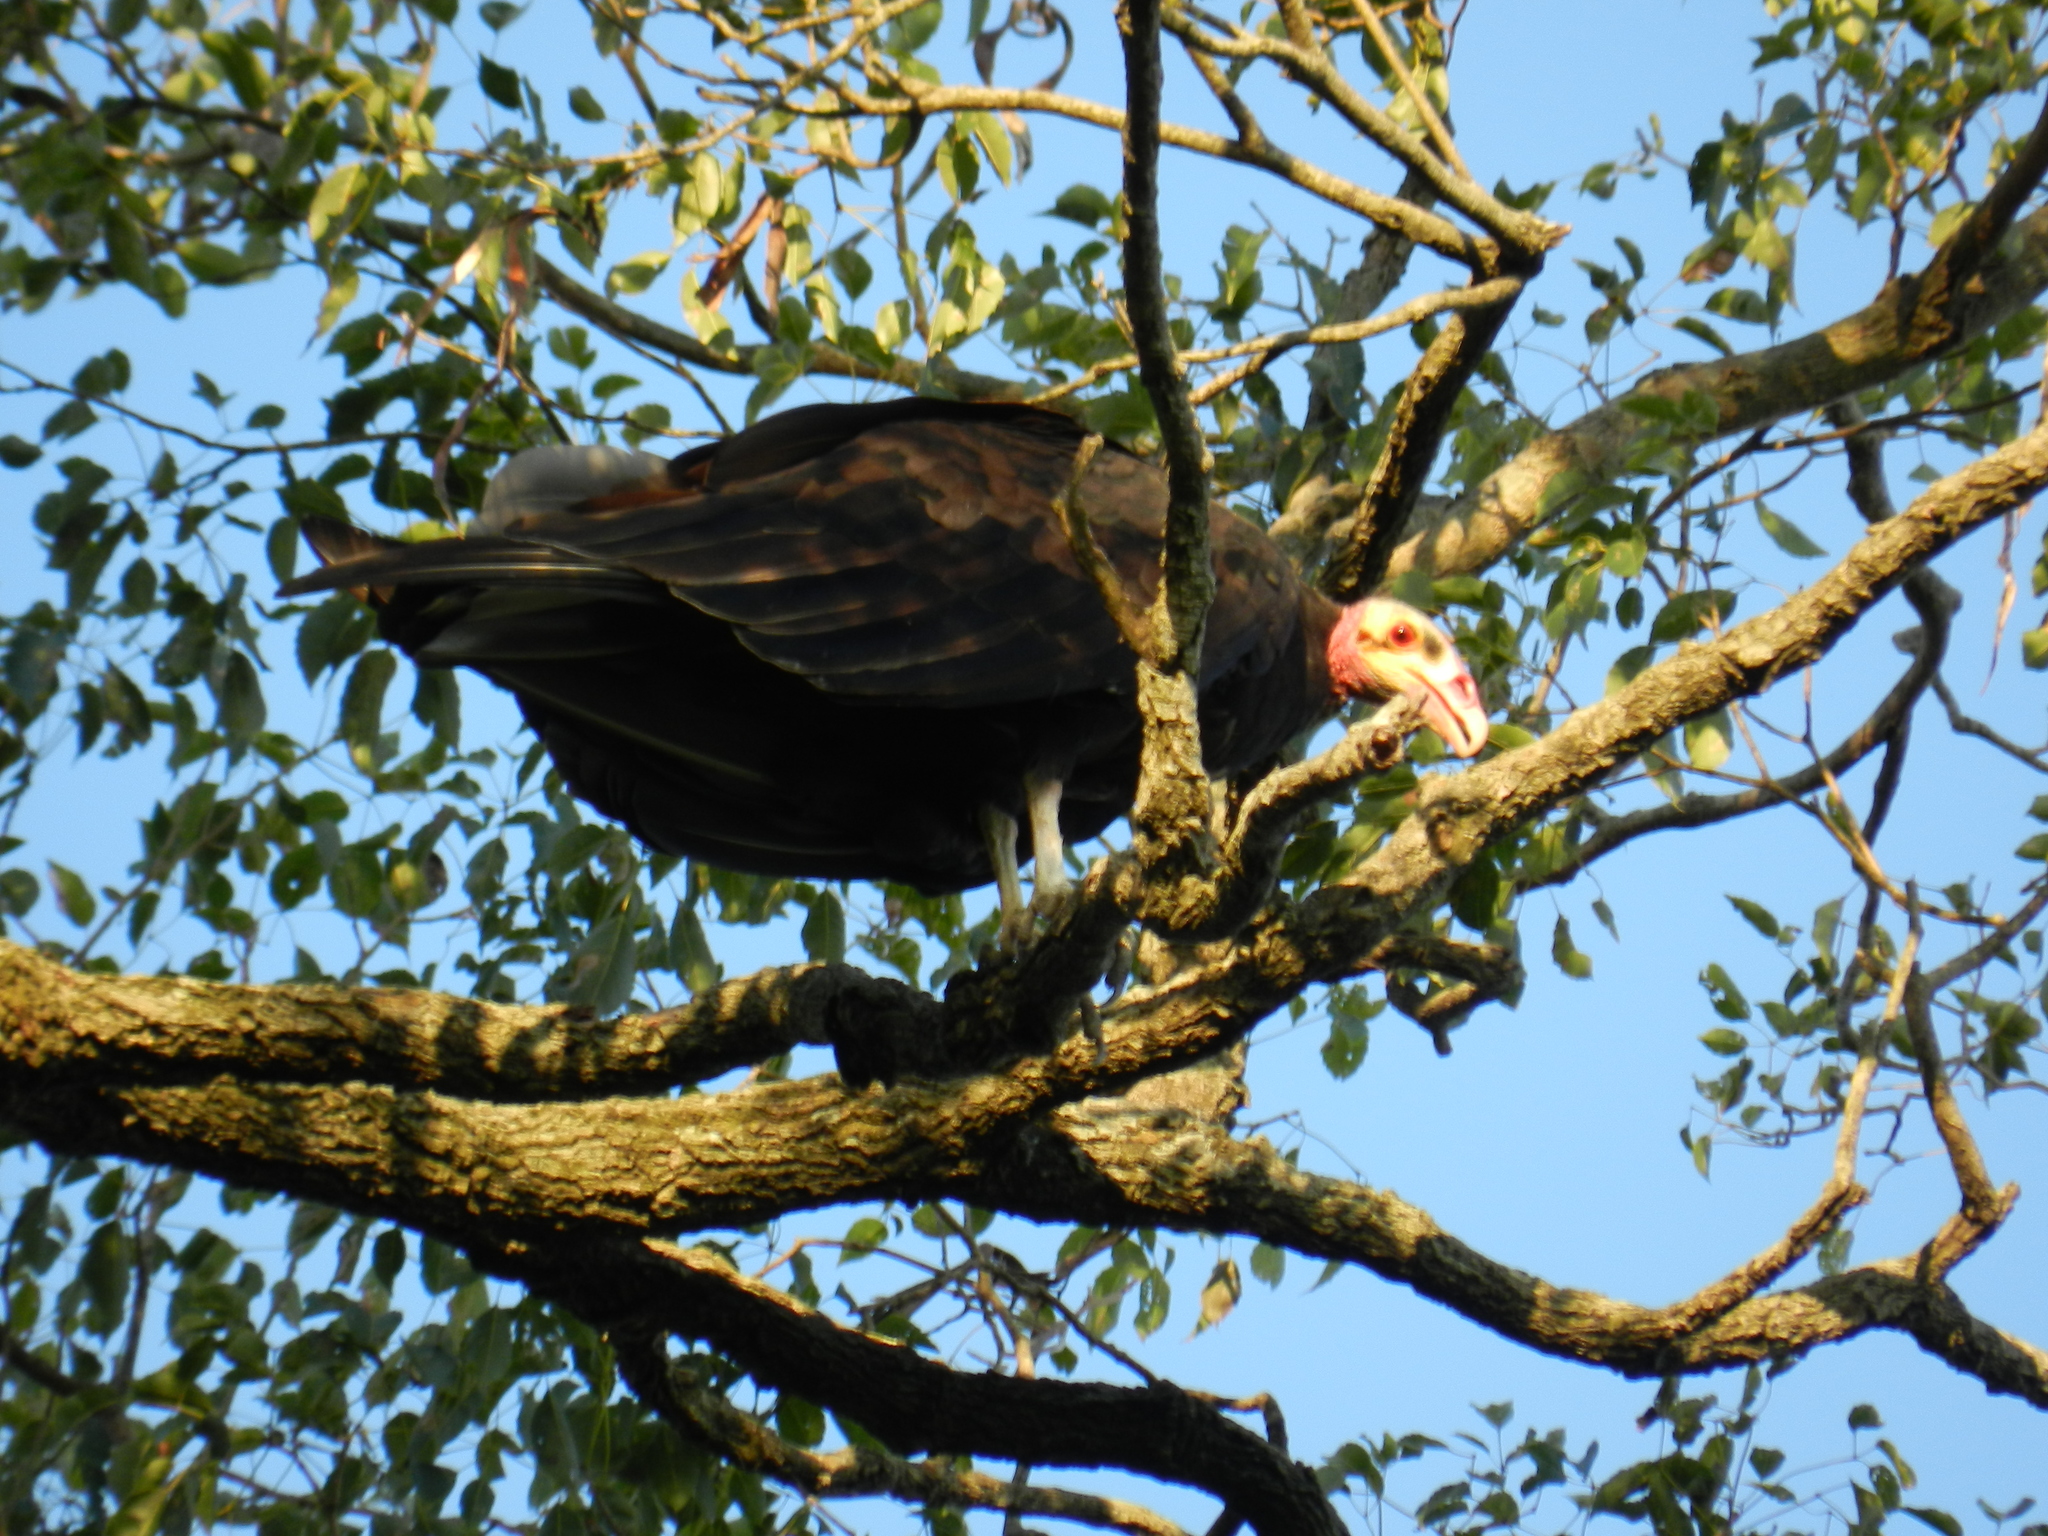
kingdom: Animalia
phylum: Chordata
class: Aves
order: Accipitriformes
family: Cathartidae
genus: Cathartes
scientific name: Cathartes burrovianus
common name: Lesser yellow-headed vulture
